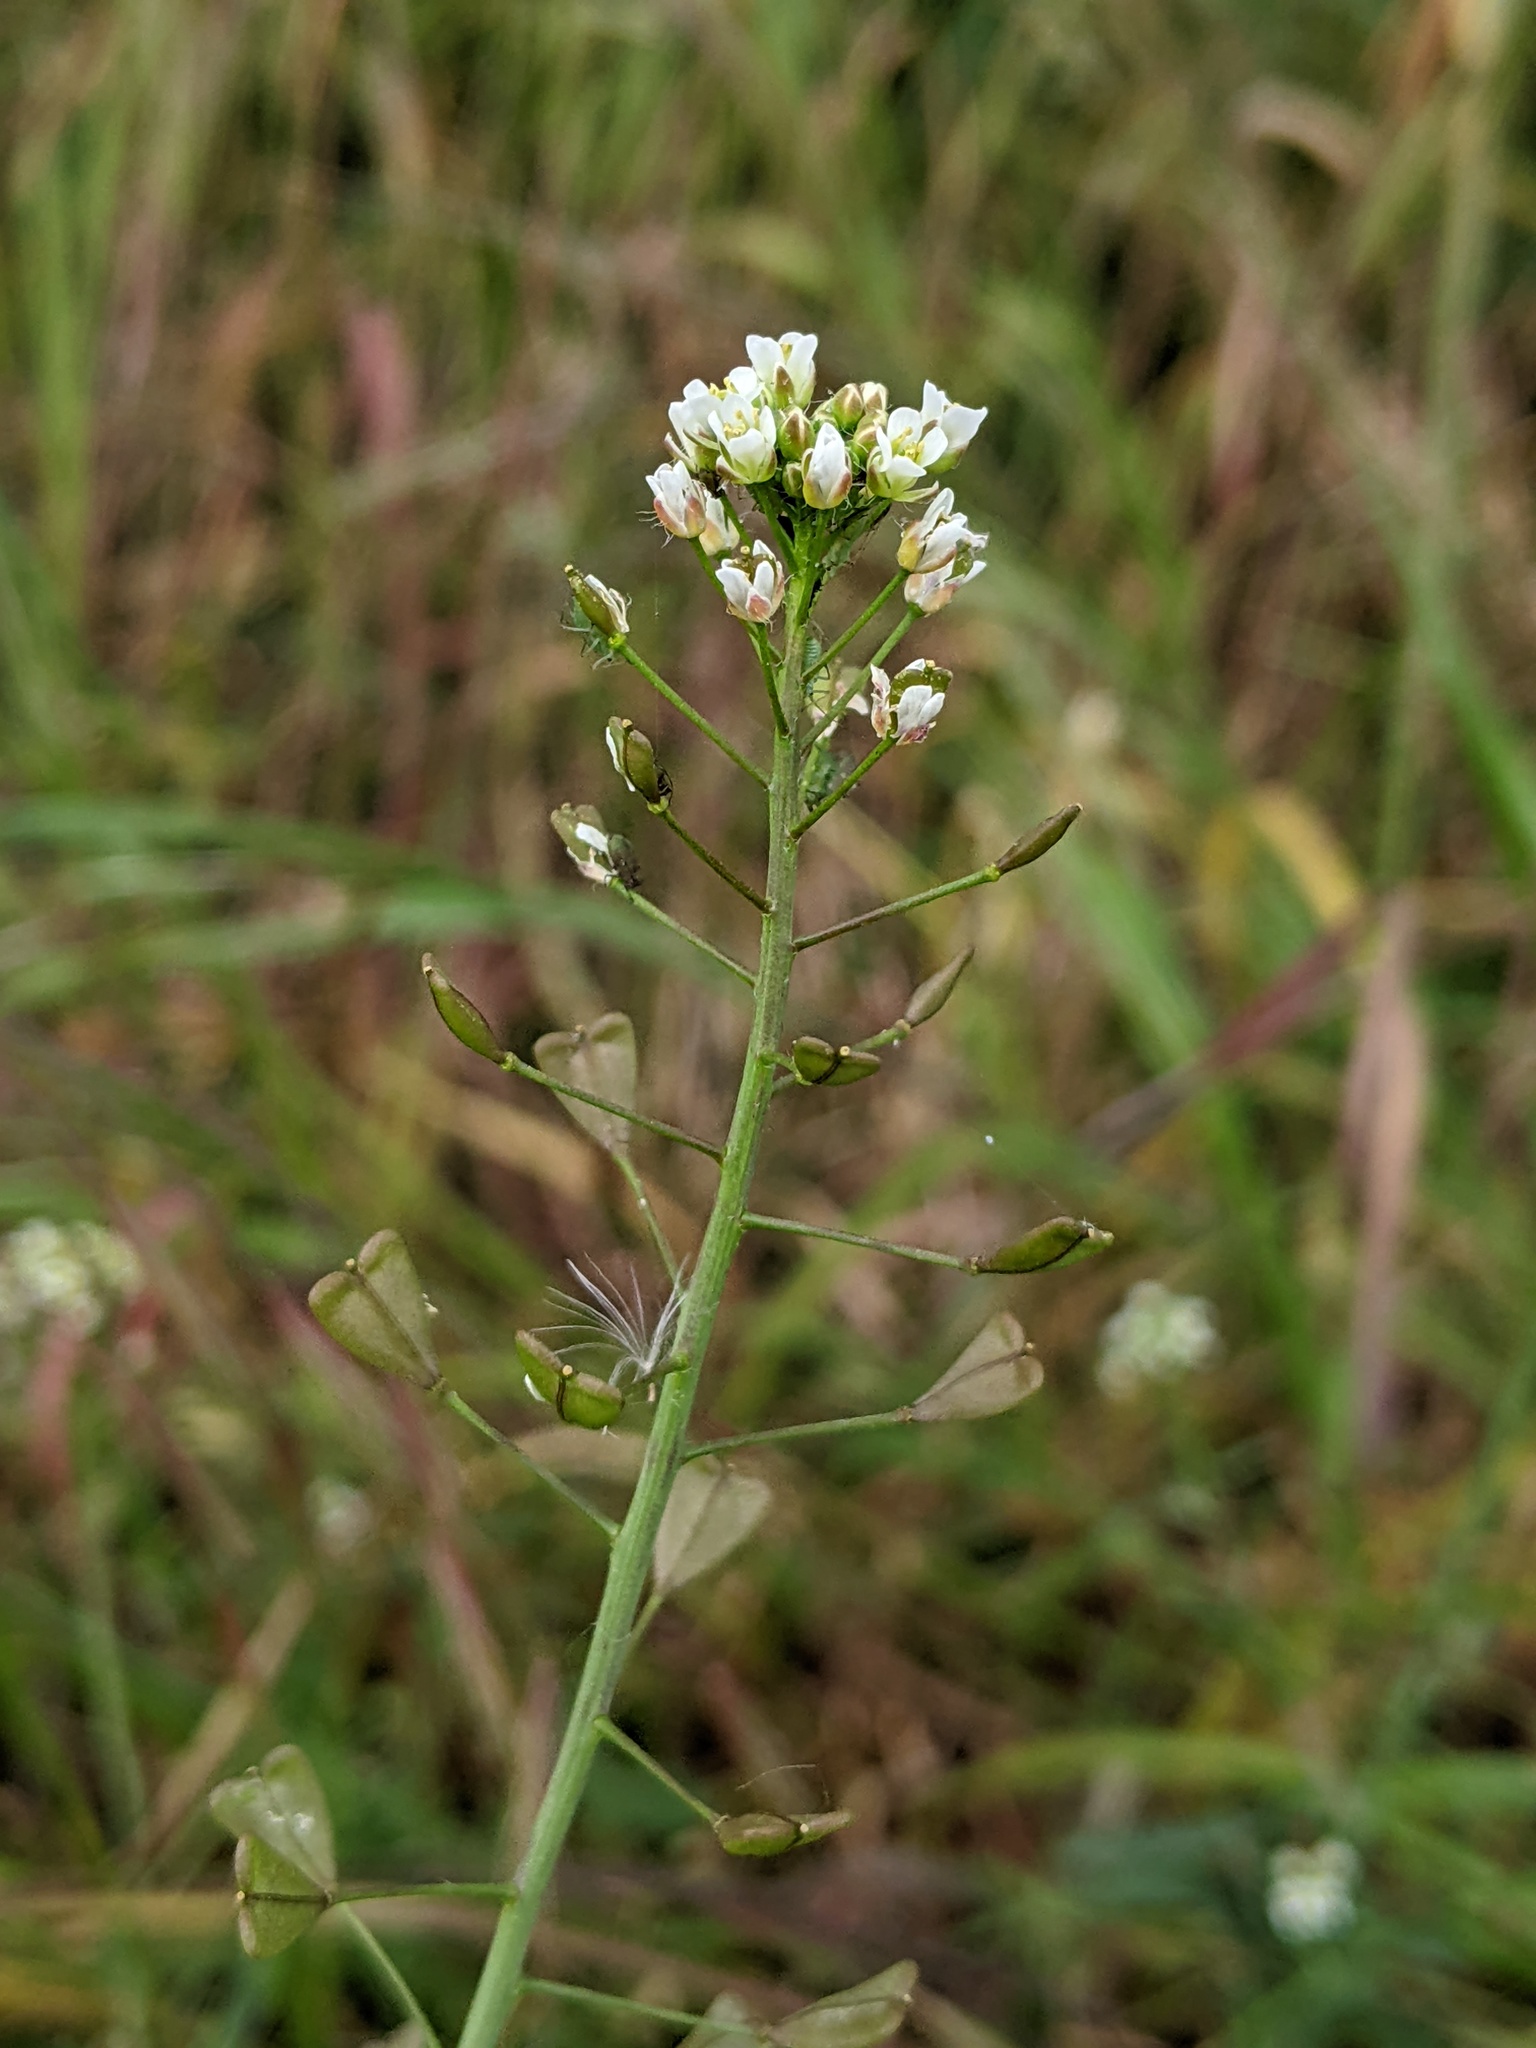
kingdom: Plantae
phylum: Tracheophyta
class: Magnoliopsida
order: Brassicales
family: Brassicaceae
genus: Capsella
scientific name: Capsella bursa-pastoris
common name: Shepherd's purse
